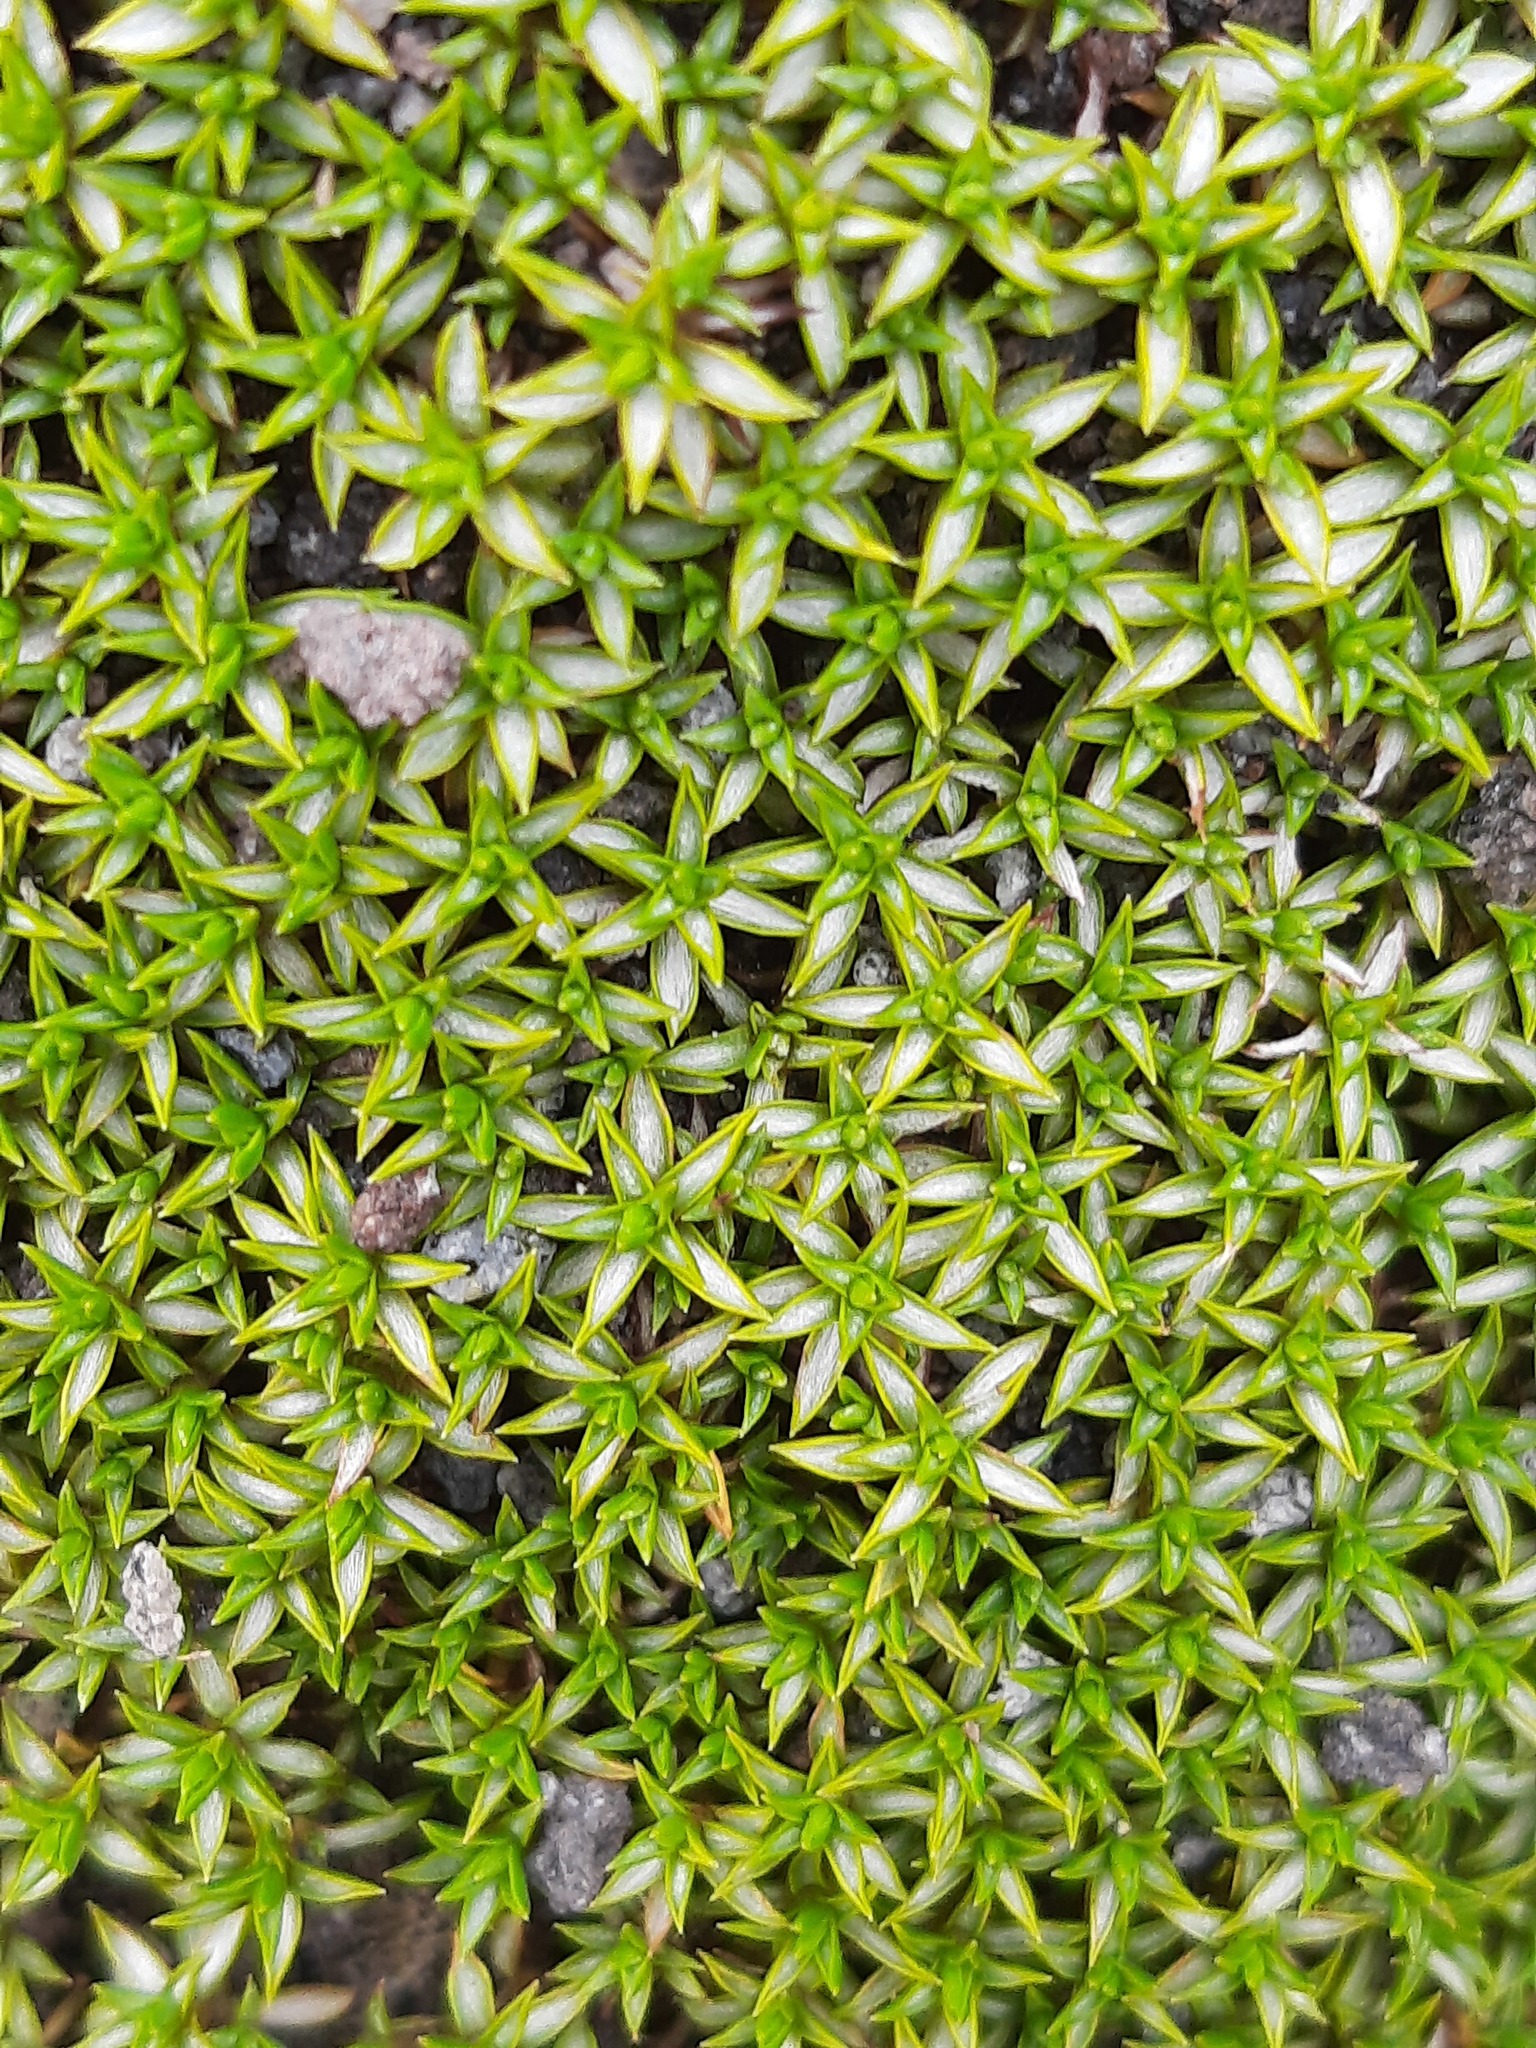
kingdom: Plantae
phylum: Tracheophyta
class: Magnoliopsida
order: Asterales
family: Asteraceae
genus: Raoulia
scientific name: Raoulia tenuicaulis
